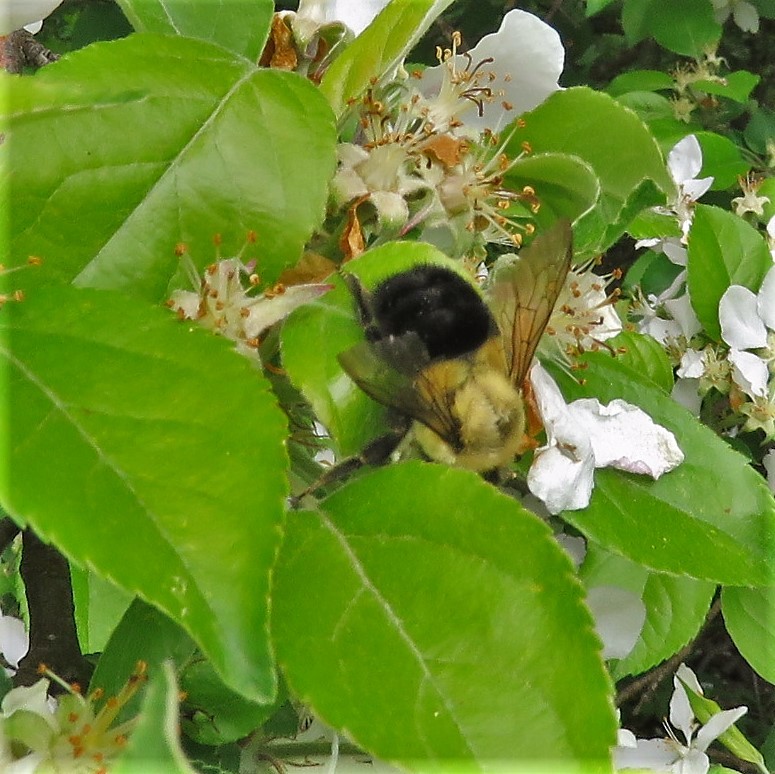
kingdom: Animalia
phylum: Arthropoda
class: Insecta
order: Hymenoptera
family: Apidae
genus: Bombus
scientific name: Bombus impatiens
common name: Common eastern bumble bee
